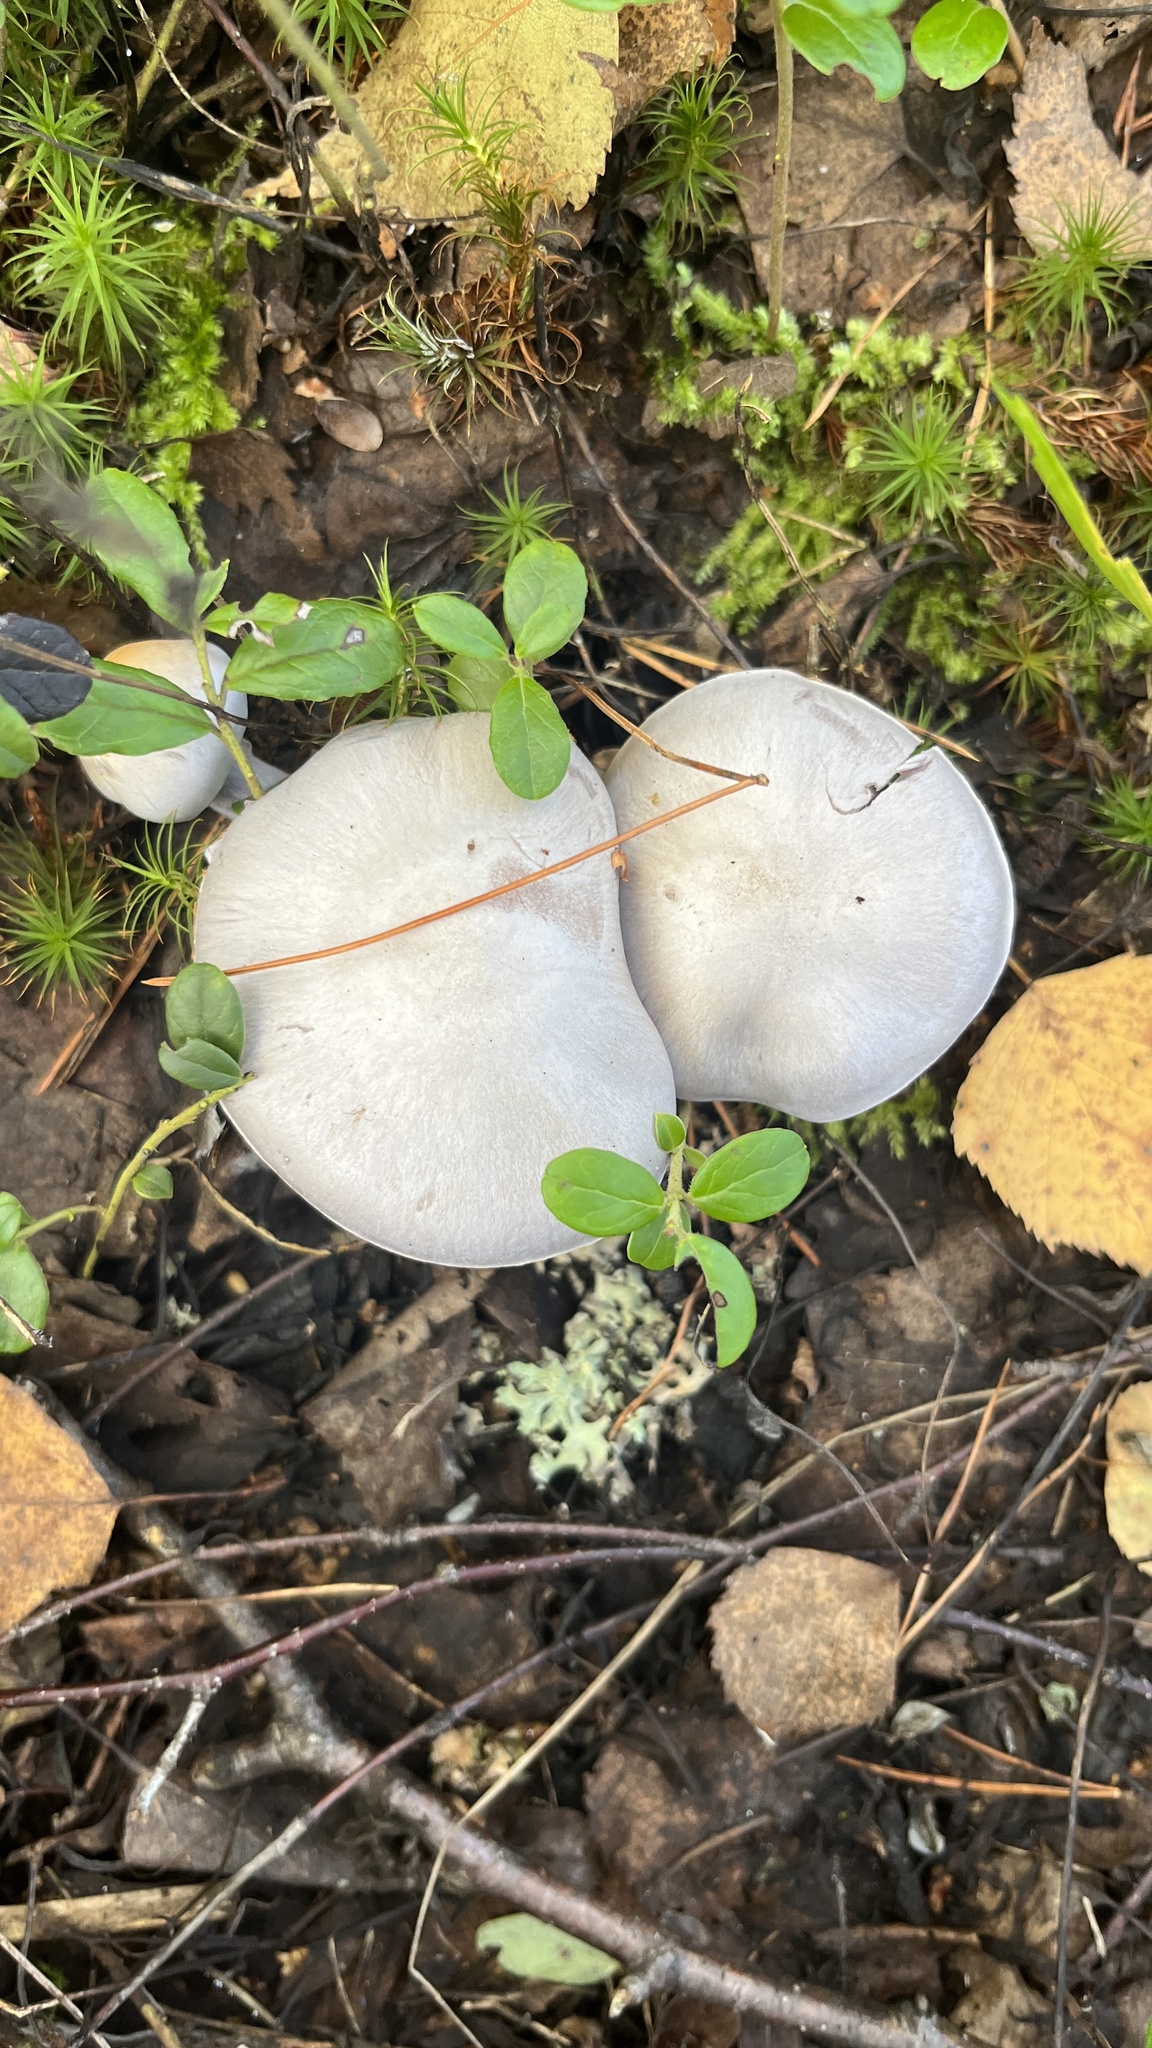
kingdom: Fungi
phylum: Basidiomycota
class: Agaricomycetes
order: Agaricales
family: Cortinariaceae
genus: Cortinarius
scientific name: Cortinarius alboviolaceus
